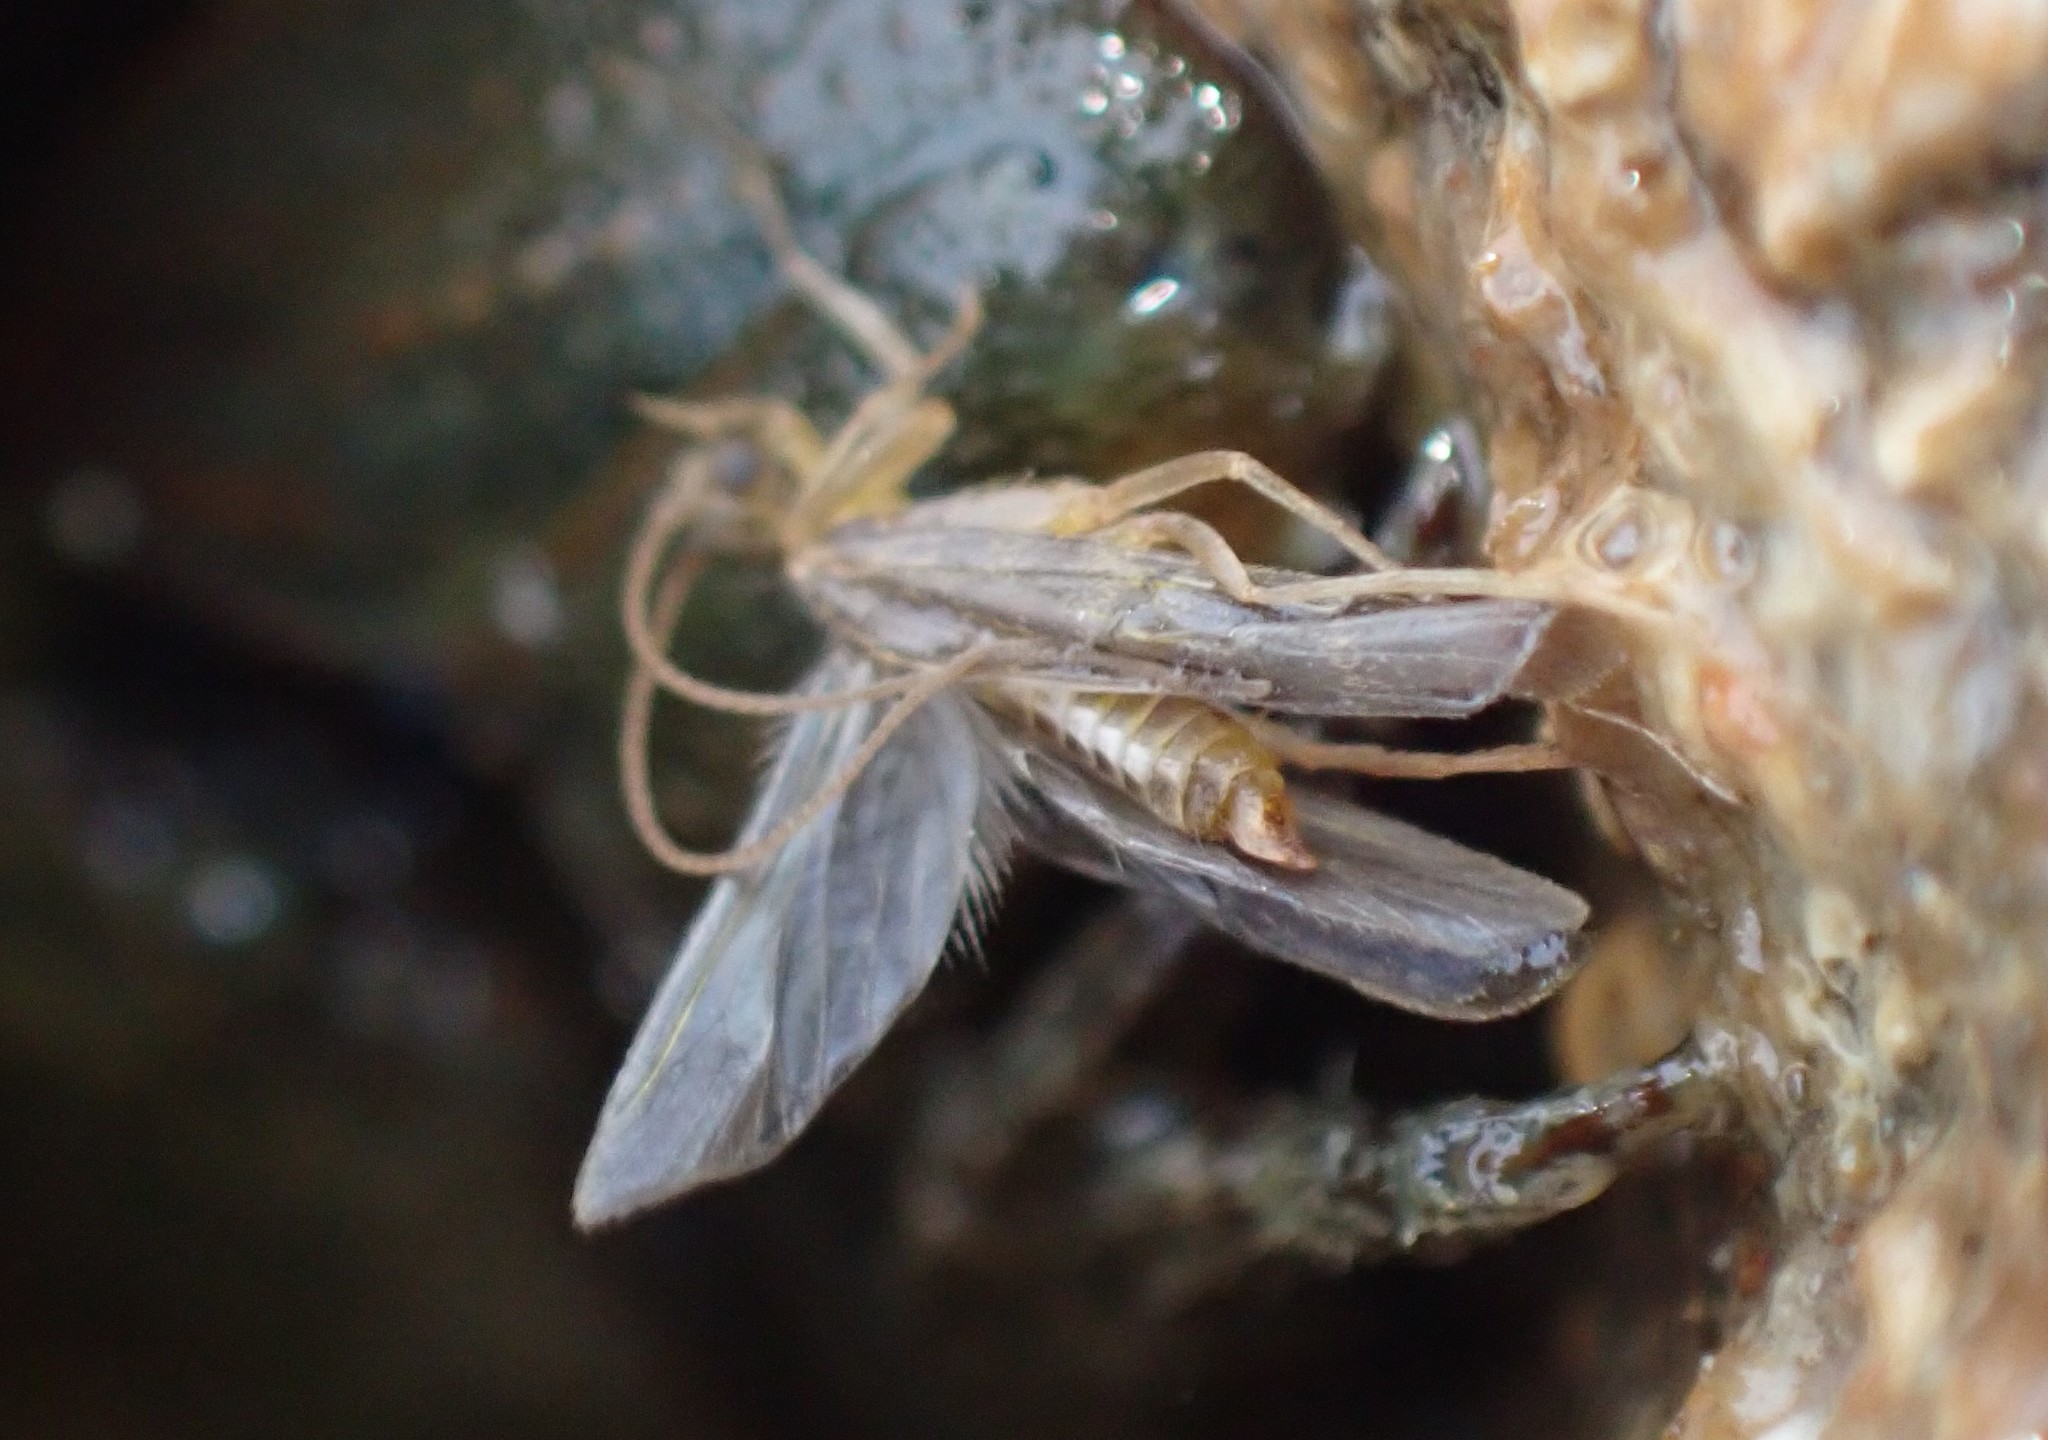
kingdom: Animalia
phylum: Arthropoda
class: Insecta
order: Trichoptera
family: Chathamiidae
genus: Philanisus
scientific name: Philanisus plebeius
